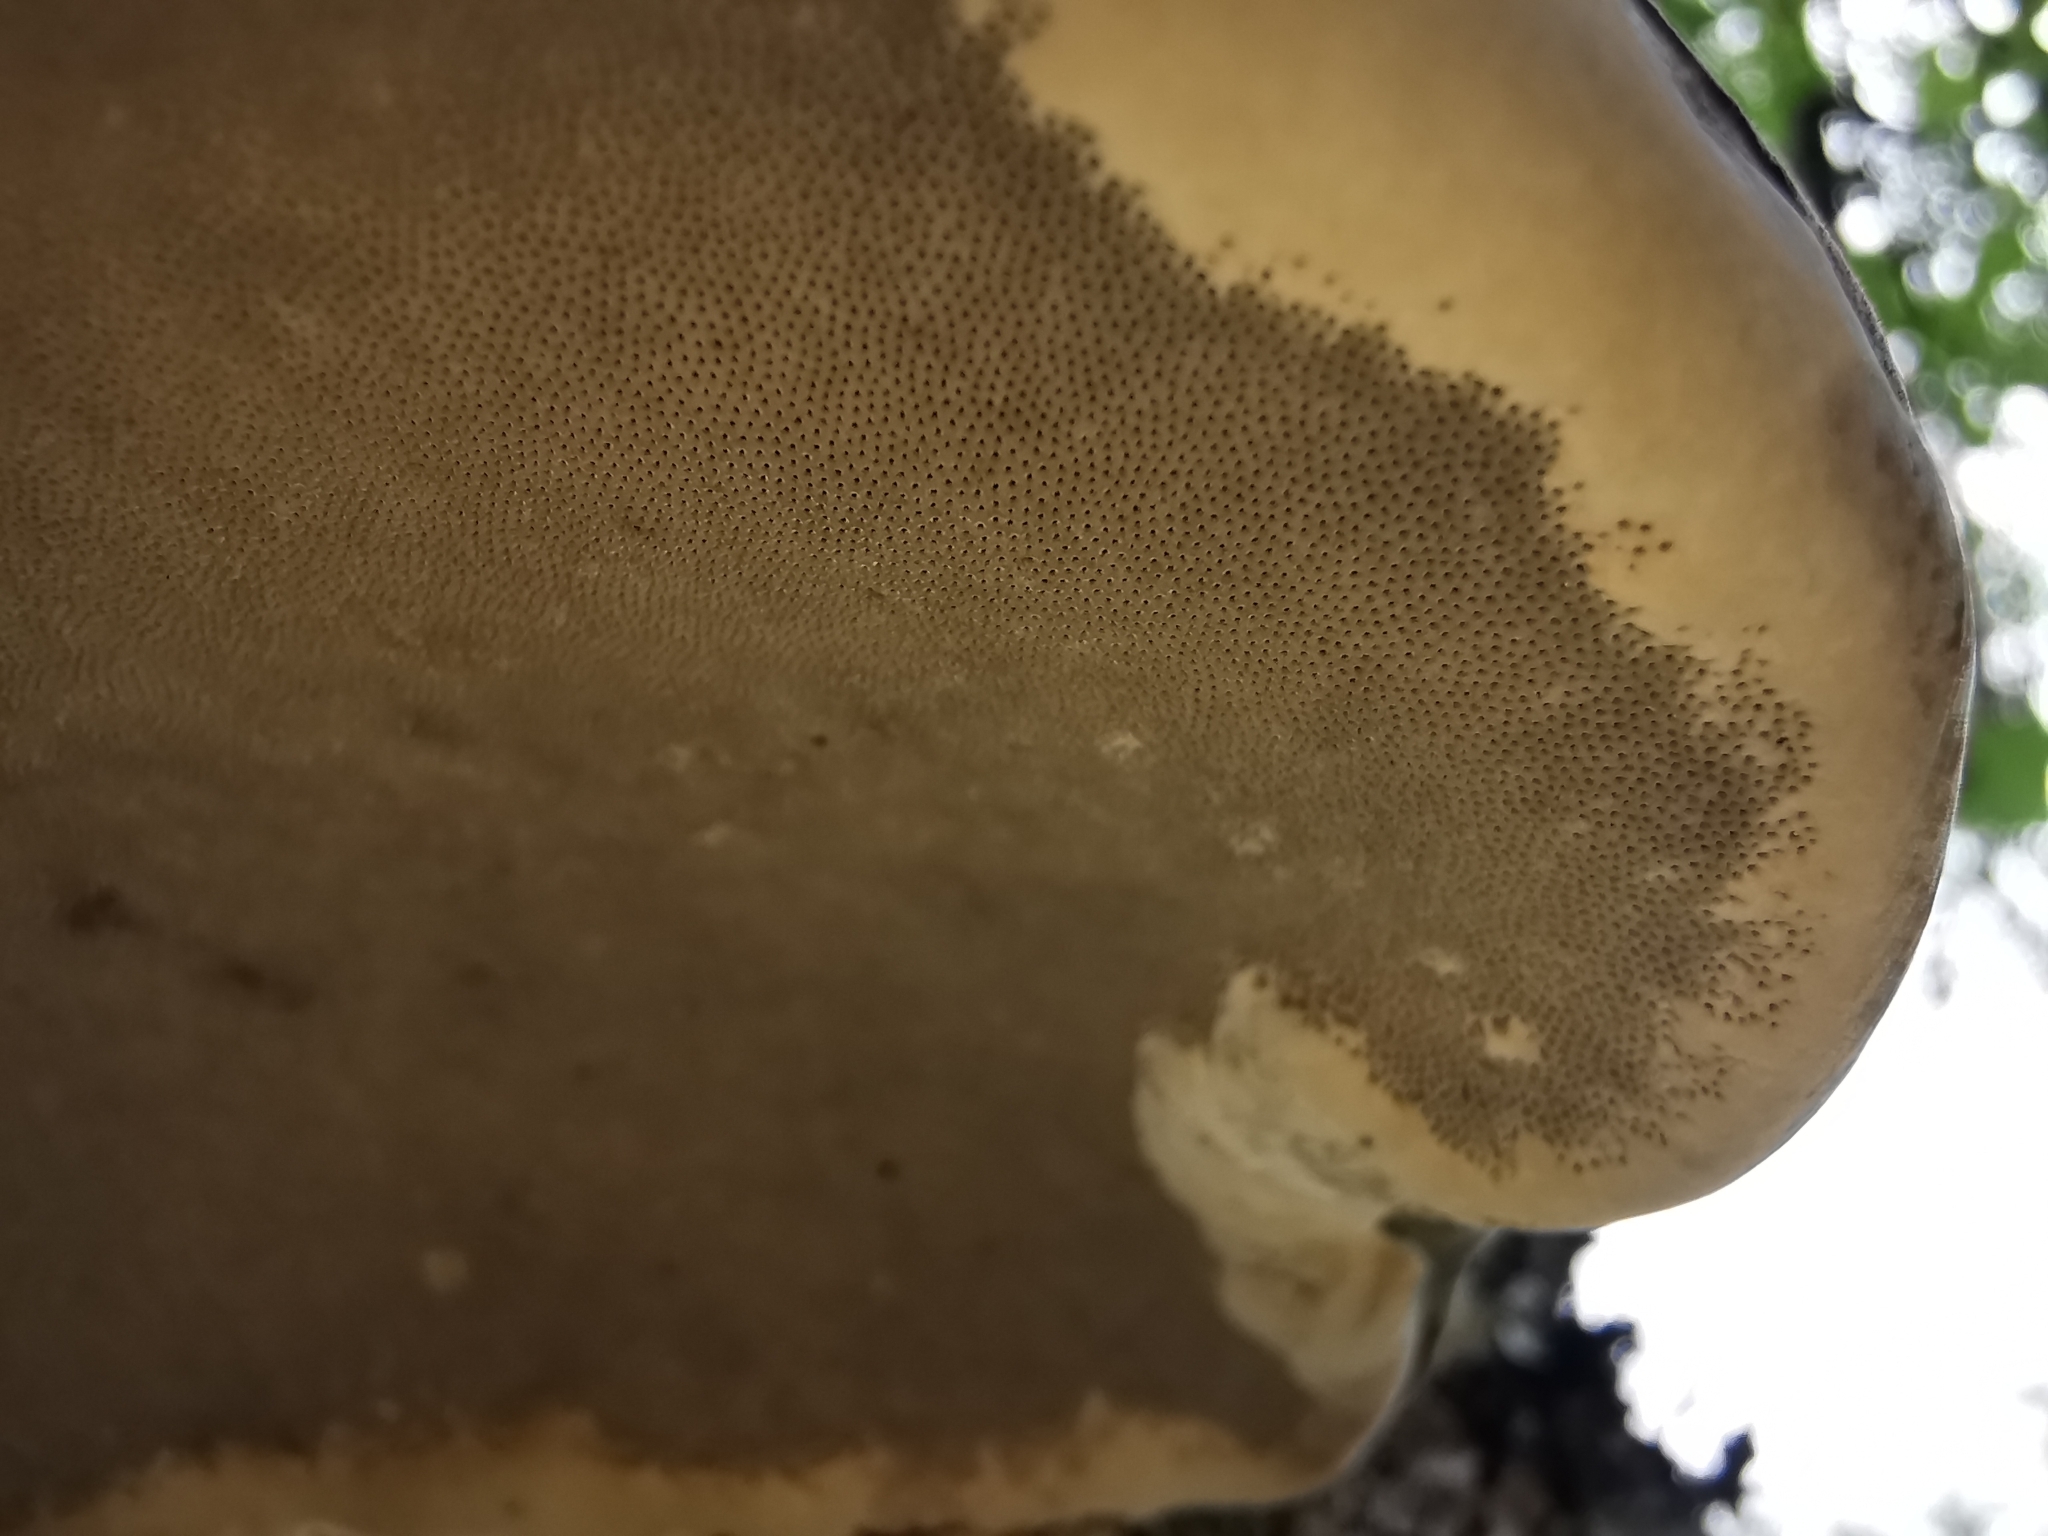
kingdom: Fungi
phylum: Basidiomycota
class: Agaricomycetes
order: Polyporales
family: Polyporaceae
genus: Fomes
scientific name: Fomes fomentarius
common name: Hoof fungus
